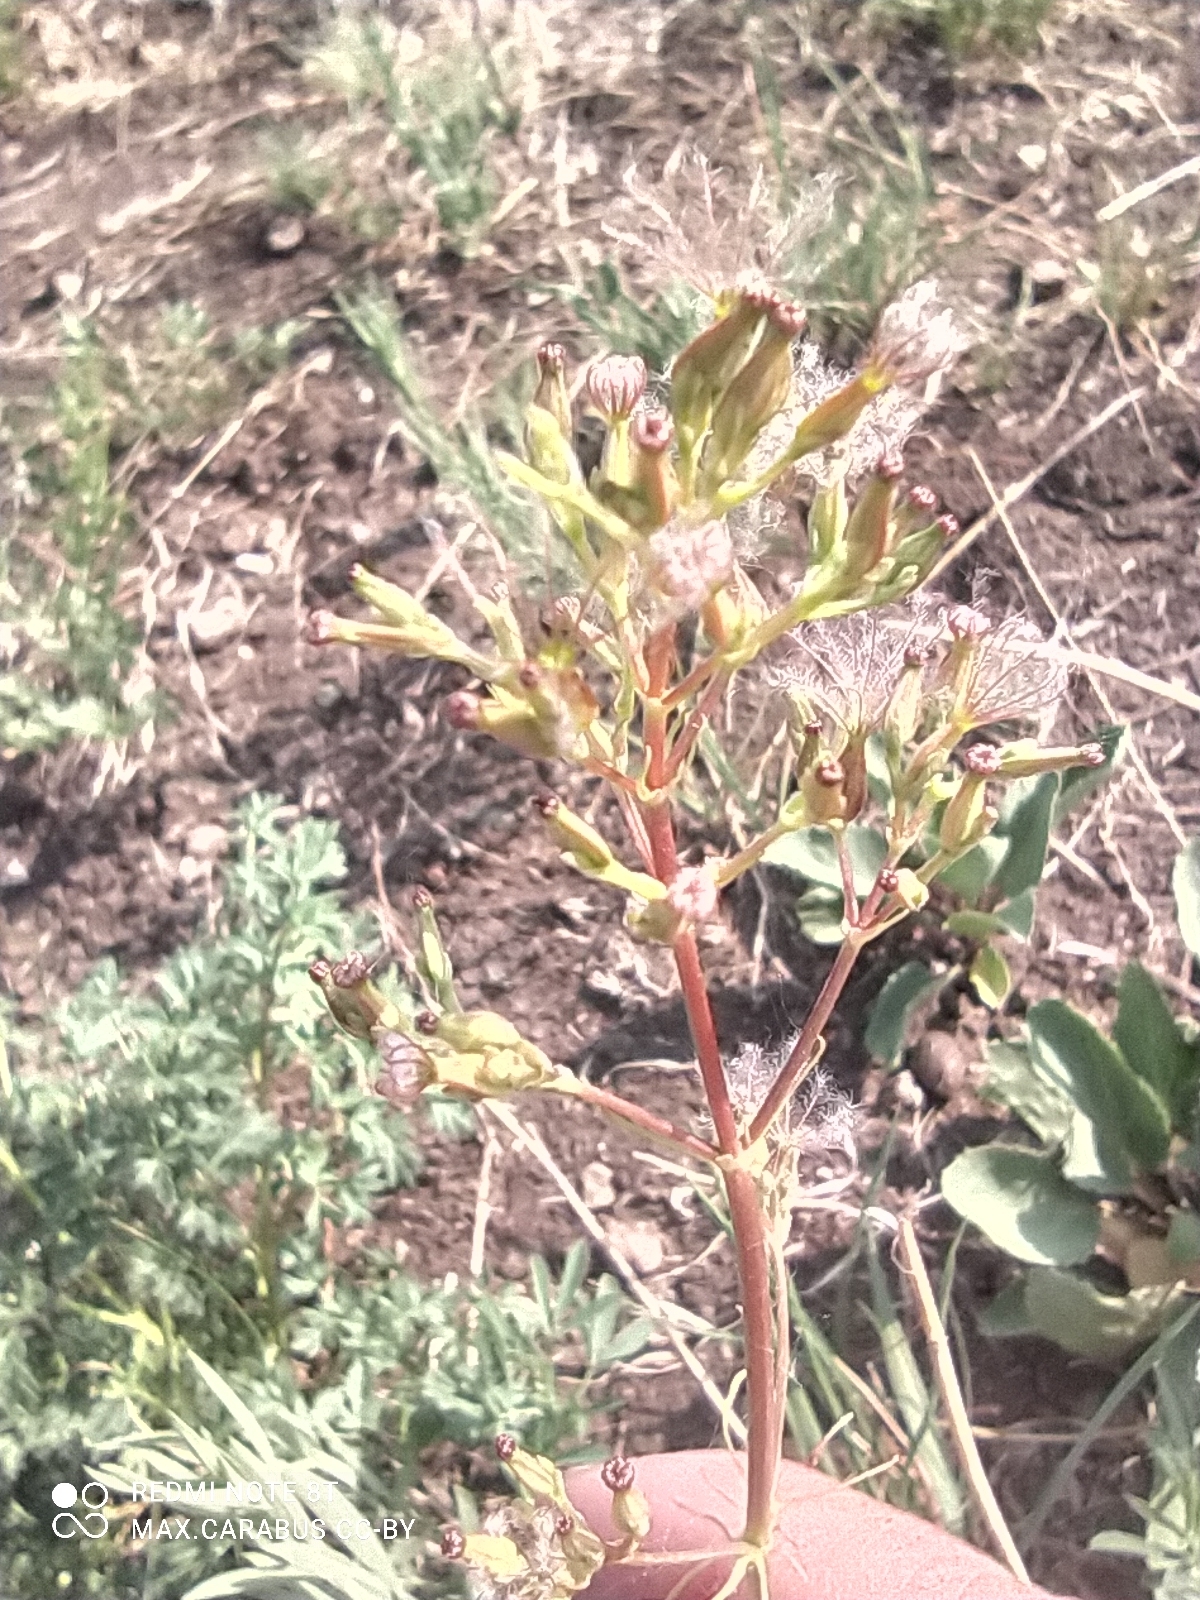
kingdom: Plantae
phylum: Tracheophyta
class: Magnoliopsida
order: Dipsacales
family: Caprifoliaceae
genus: Valeriana
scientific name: Valeriana tuberosa
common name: Tuberous valerian
